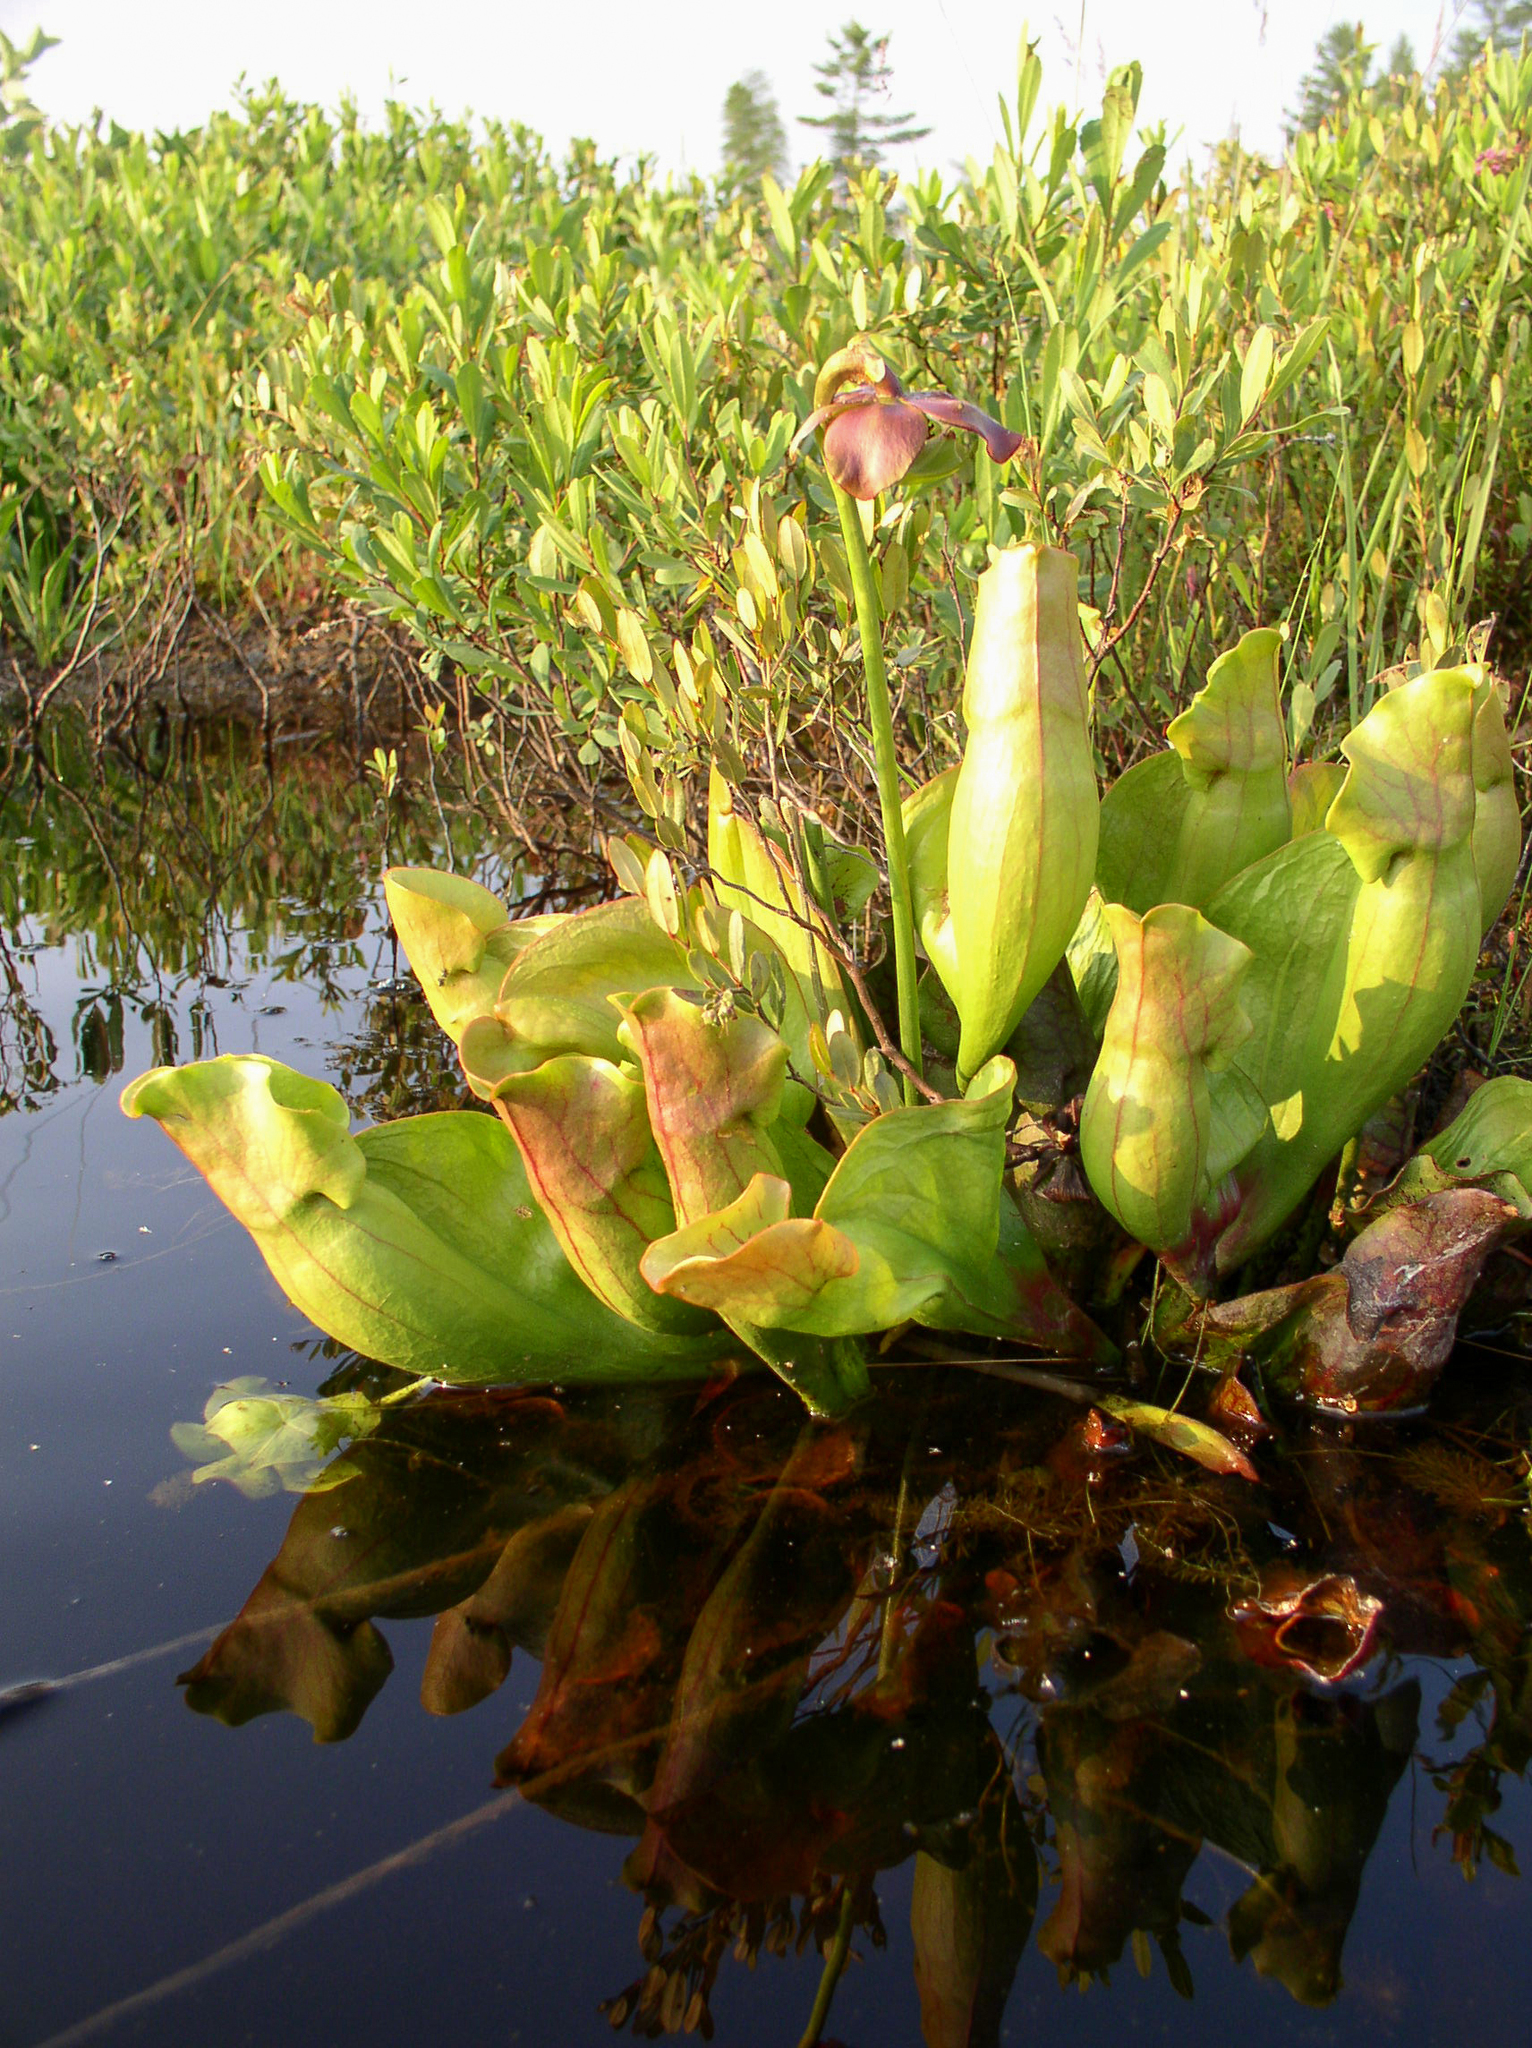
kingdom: Plantae
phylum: Tracheophyta
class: Magnoliopsida
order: Ericales
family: Sarraceniaceae
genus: Sarracenia
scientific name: Sarracenia purpurea
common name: Pitcherplant
